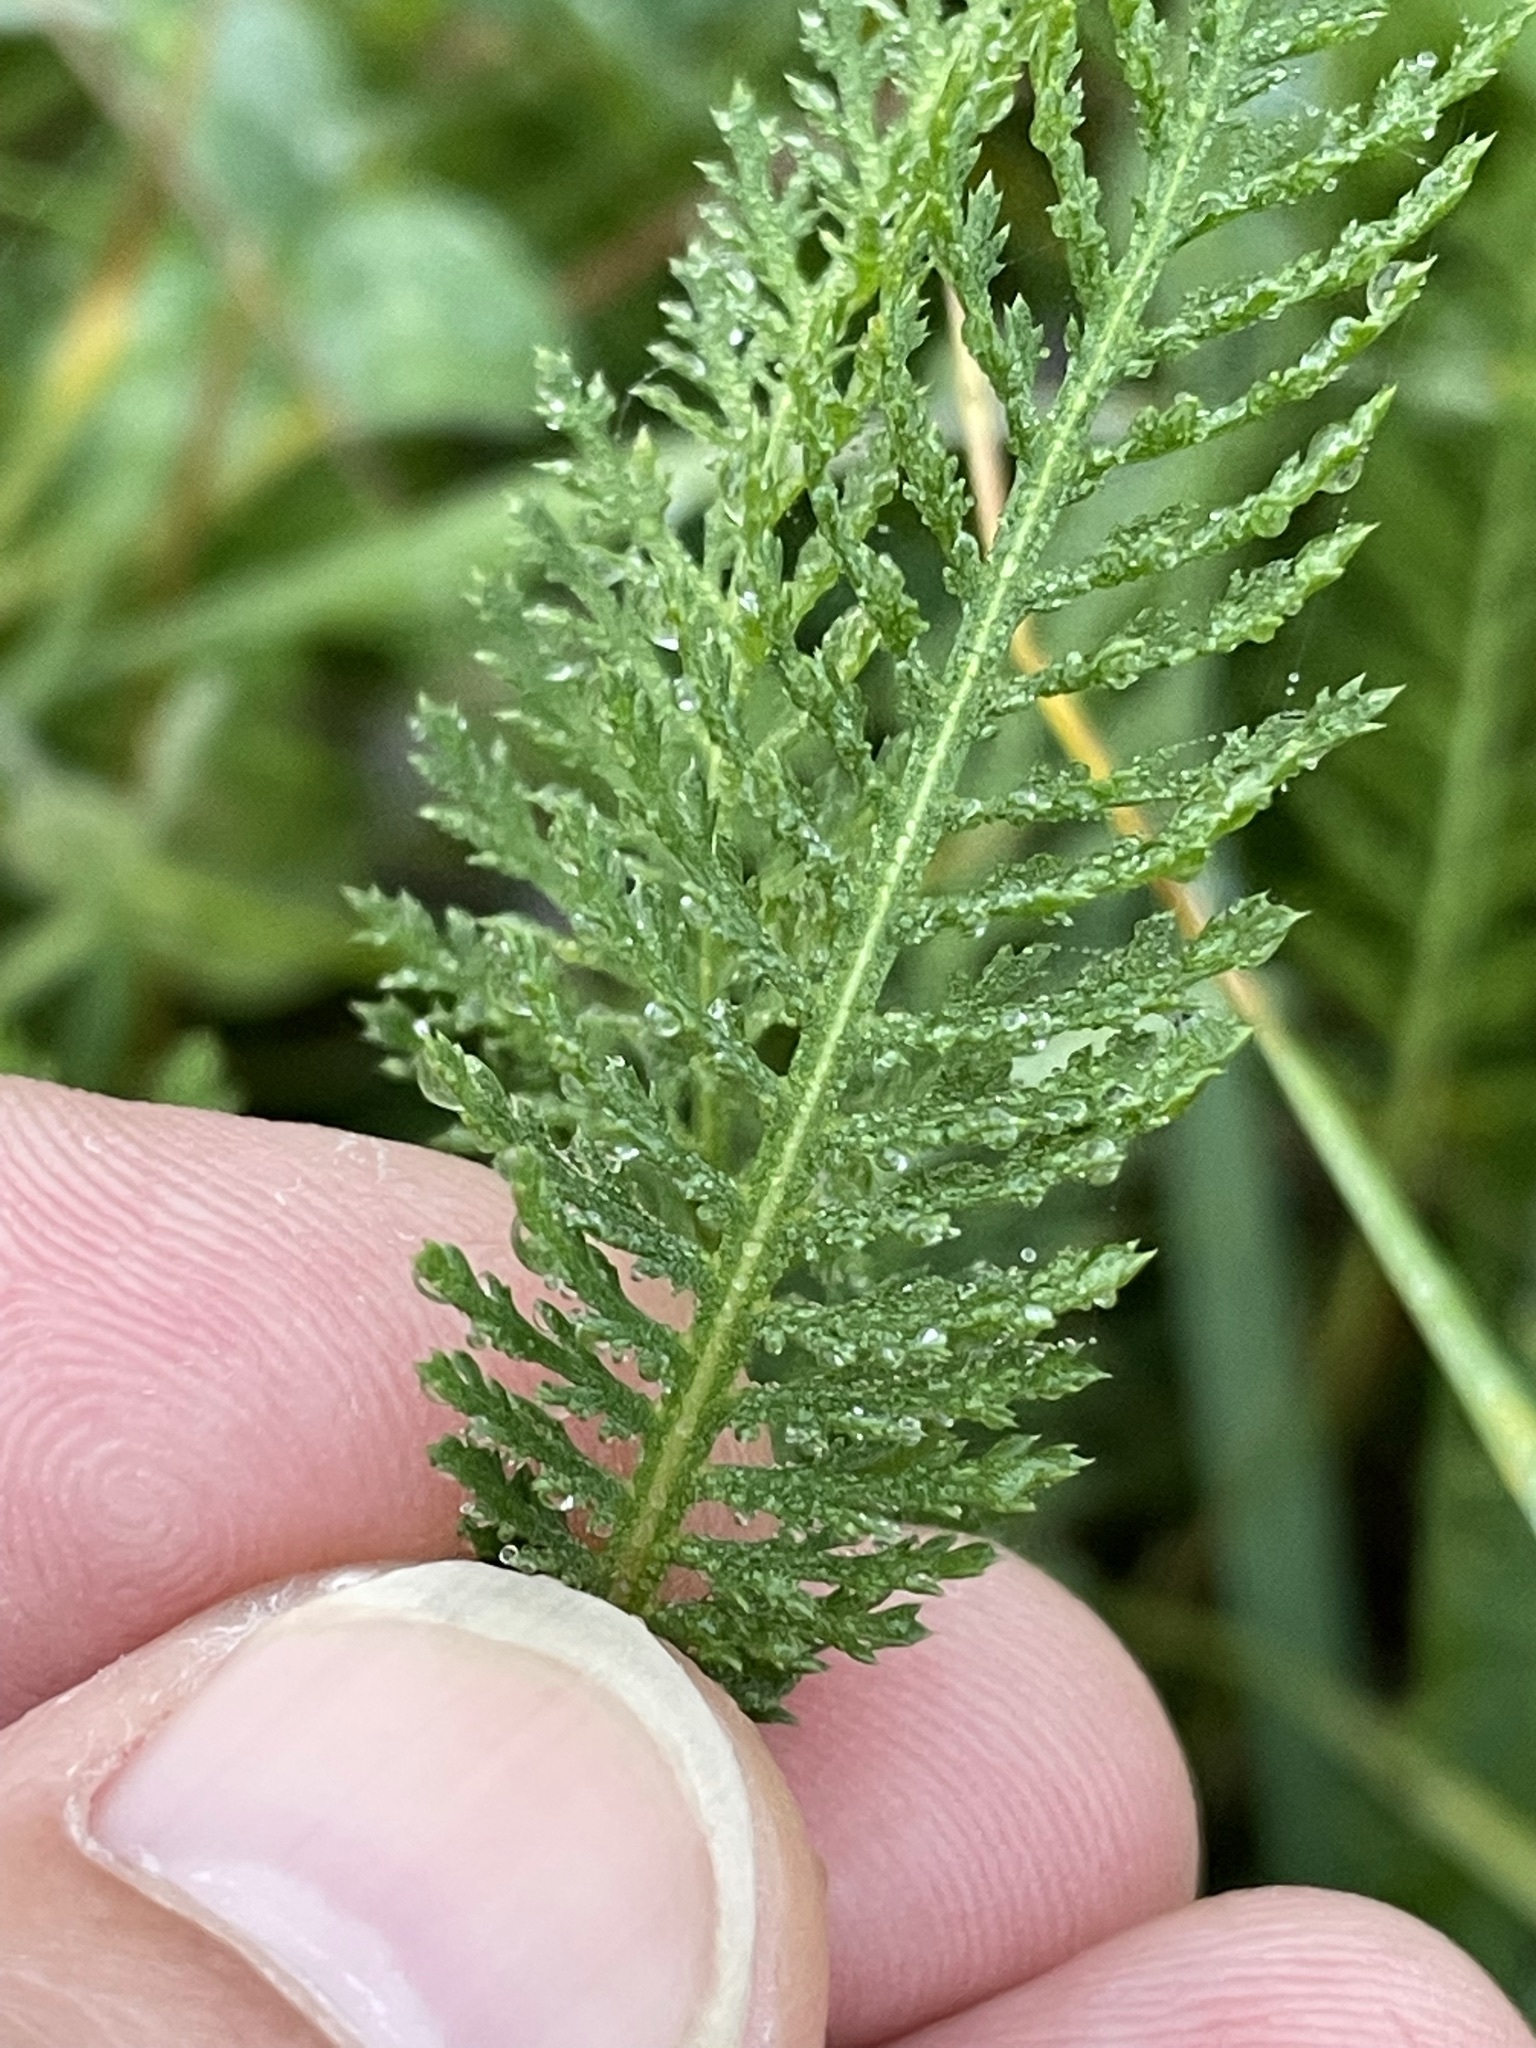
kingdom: Plantae
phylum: Tracheophyta
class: Magnoliopsida
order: Asterales
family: Asteraceae
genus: Achillea
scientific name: Achillea millefolium
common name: Yarrow
